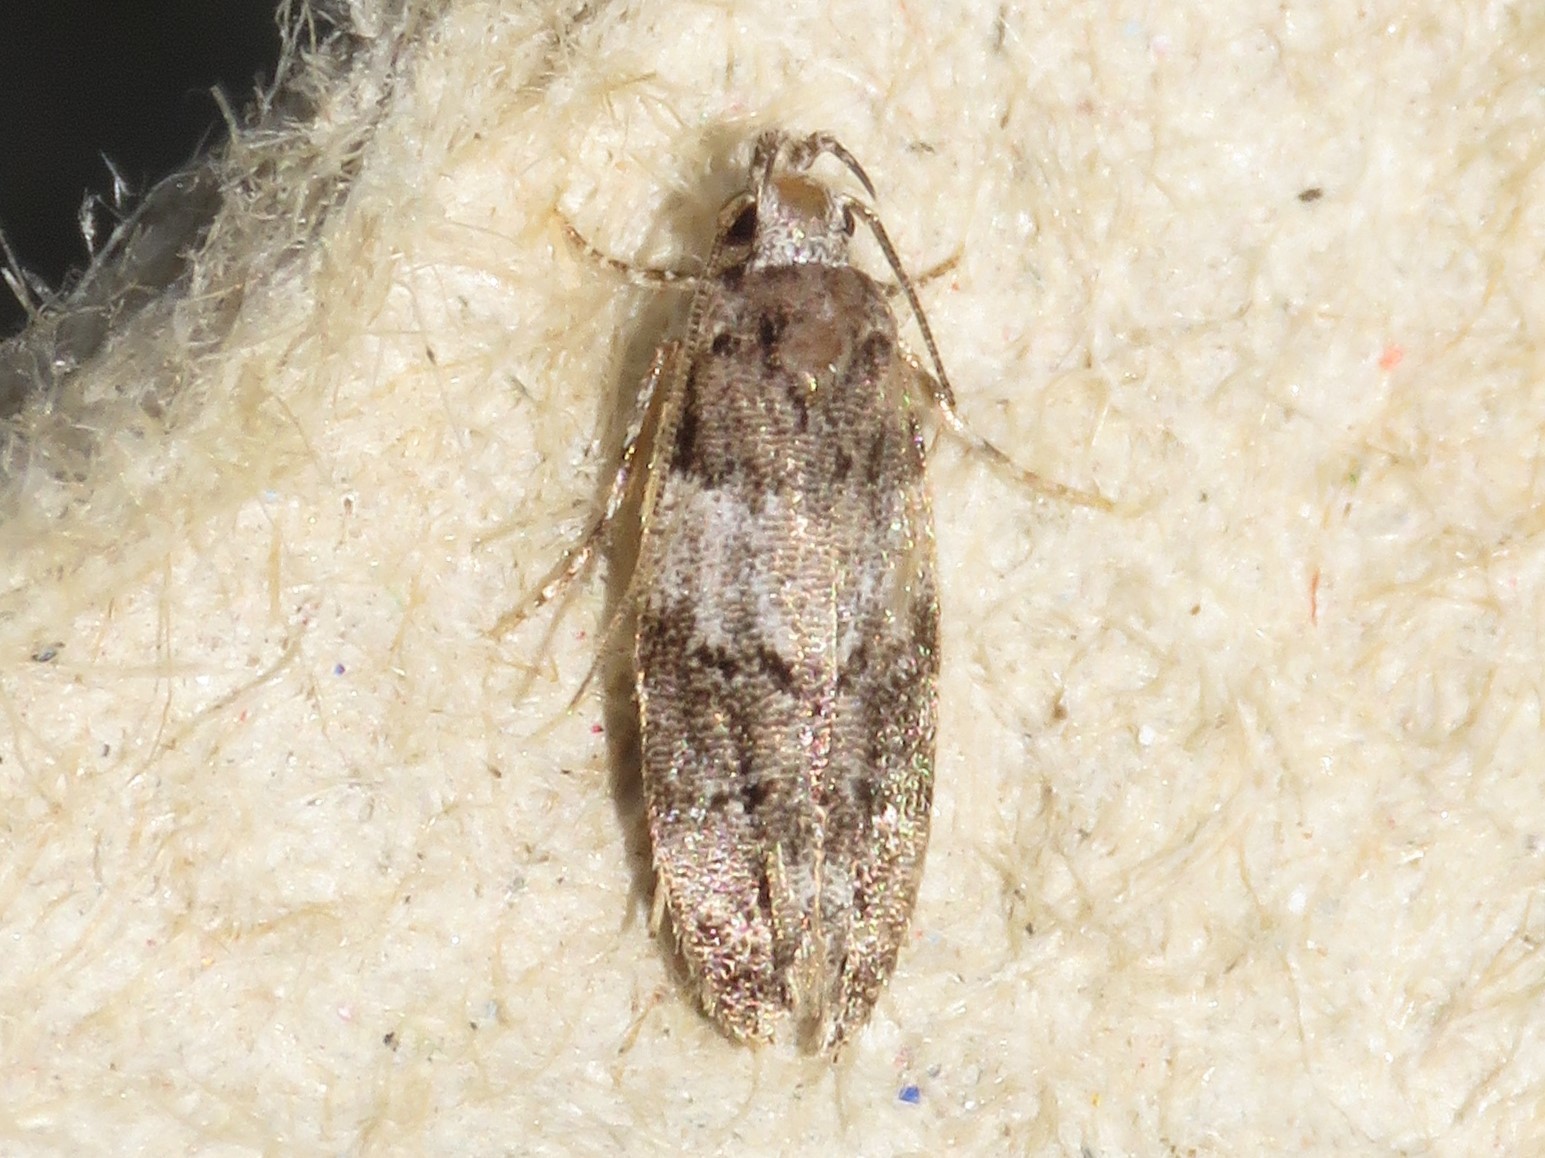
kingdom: Animalia
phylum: Arthropoda
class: Insecta
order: Lepidoptera
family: Gelechiidae
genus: Pubitelphusa
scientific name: Pubitelphusa latifasciella
